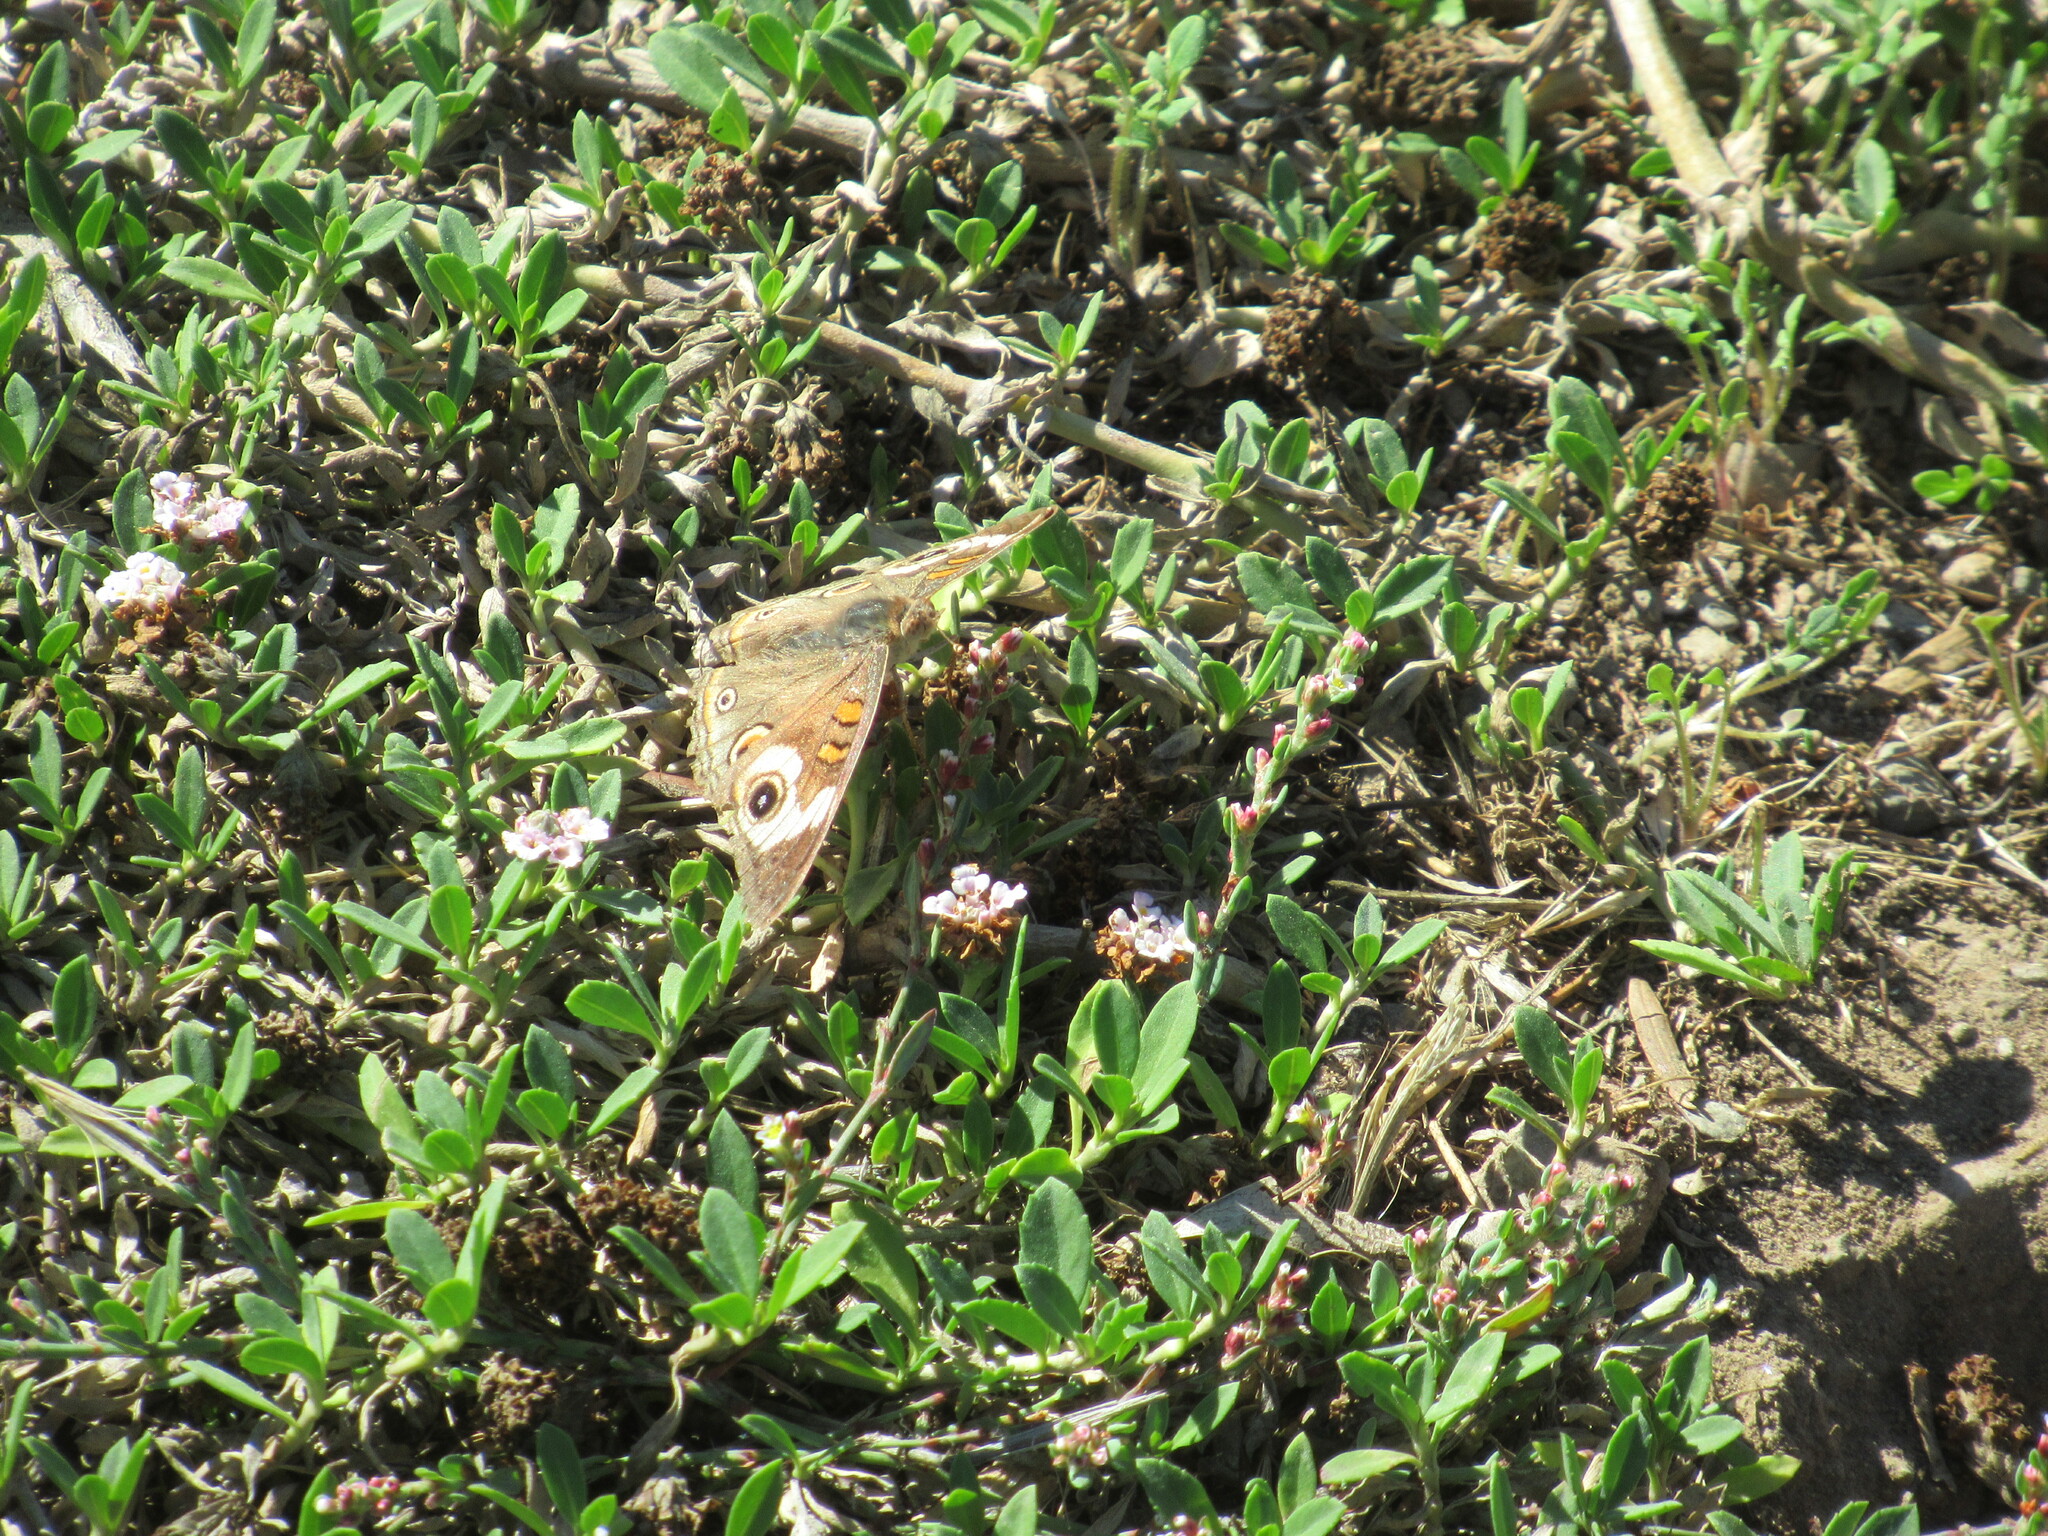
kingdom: Animalia
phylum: Arthropoda
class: Insecta
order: Lepidoptera
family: Nymphalidae
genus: Junonia
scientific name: Junonia grisea
